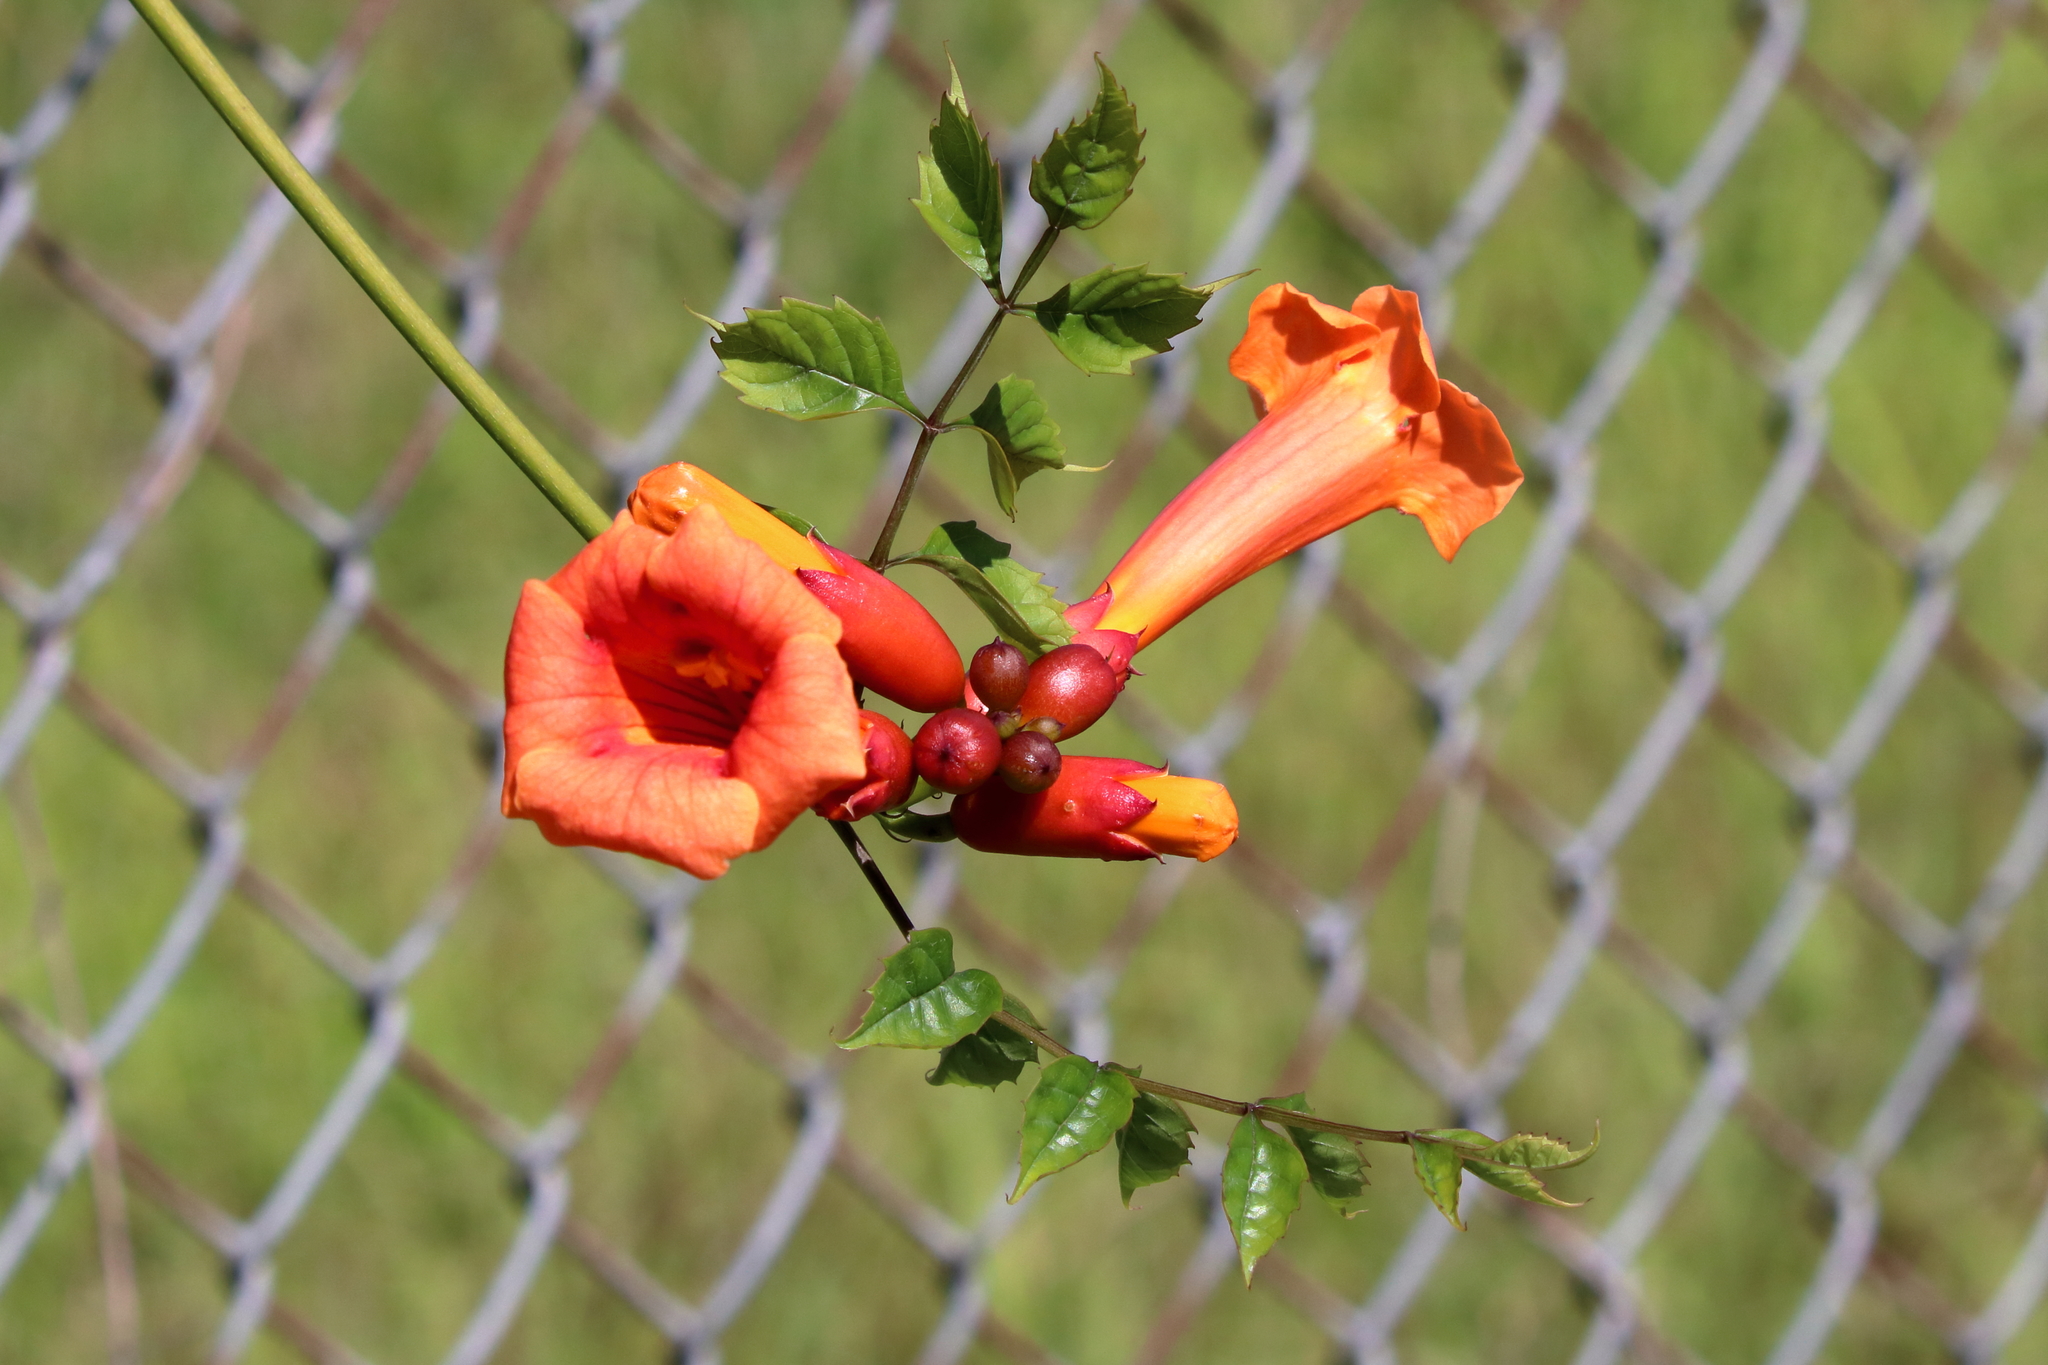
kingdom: Plantae
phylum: Tracheophyta
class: Magnoliopsida
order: Lamiales
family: Bignoniaceae
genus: Campsis
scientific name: Campsis radicans
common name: Trumpet-creeper
